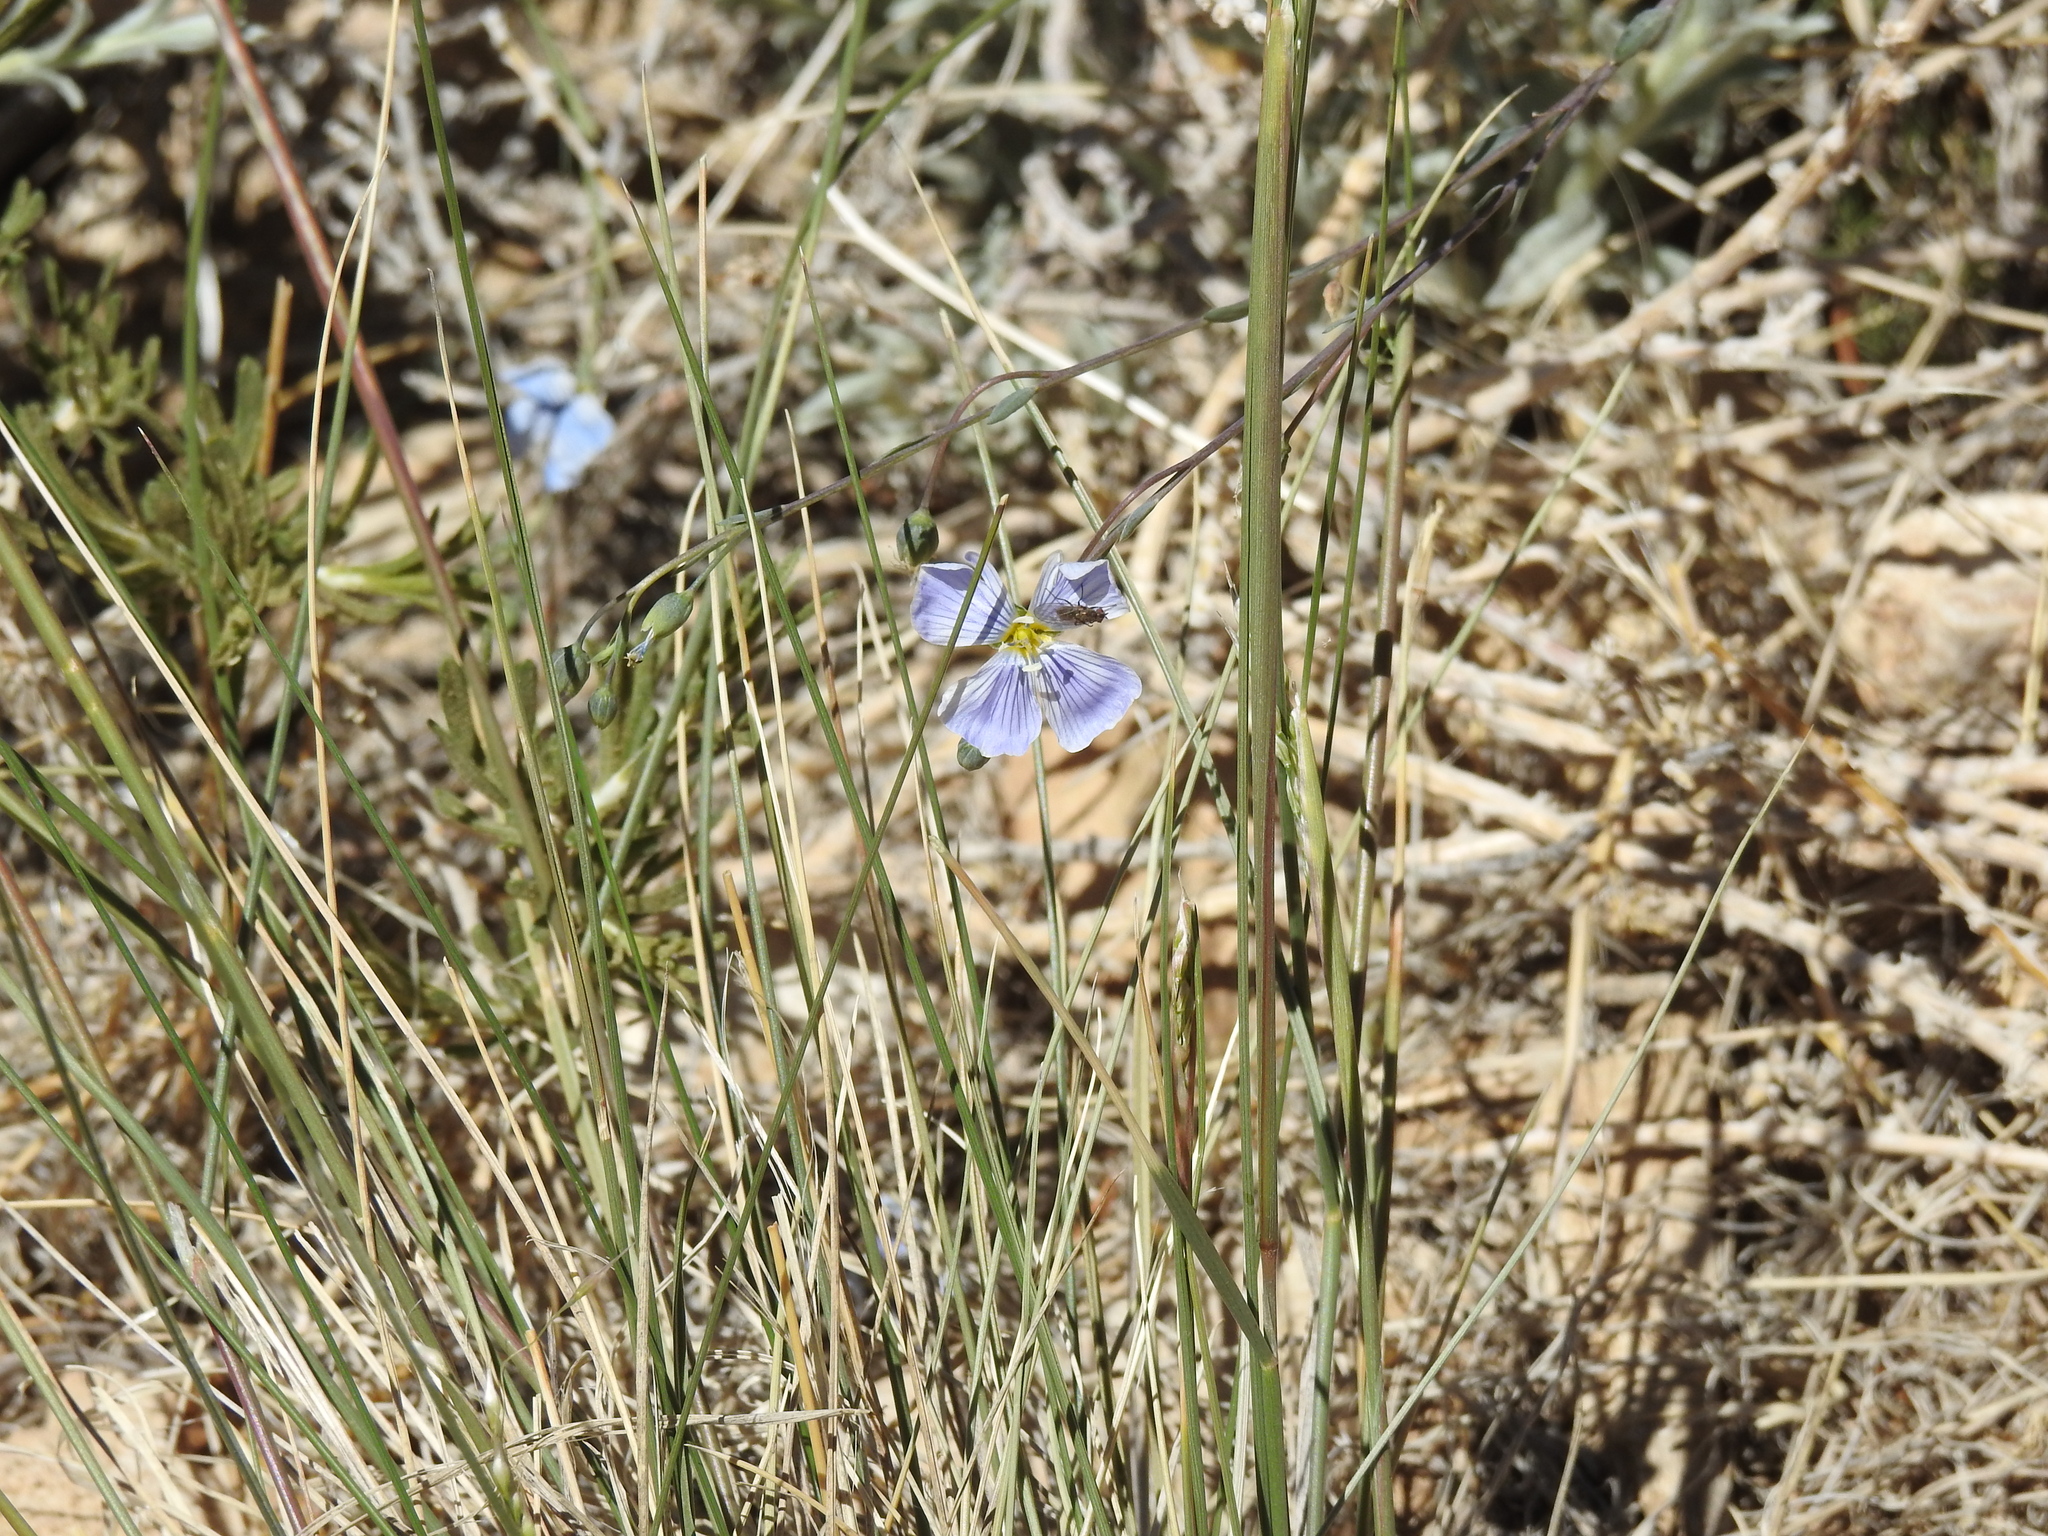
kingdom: Plantae
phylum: Tracheophyta
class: Magnoliopsida
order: Malpighiales
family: Linaceae
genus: Linum
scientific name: Linum lewisii
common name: Prairie flax
